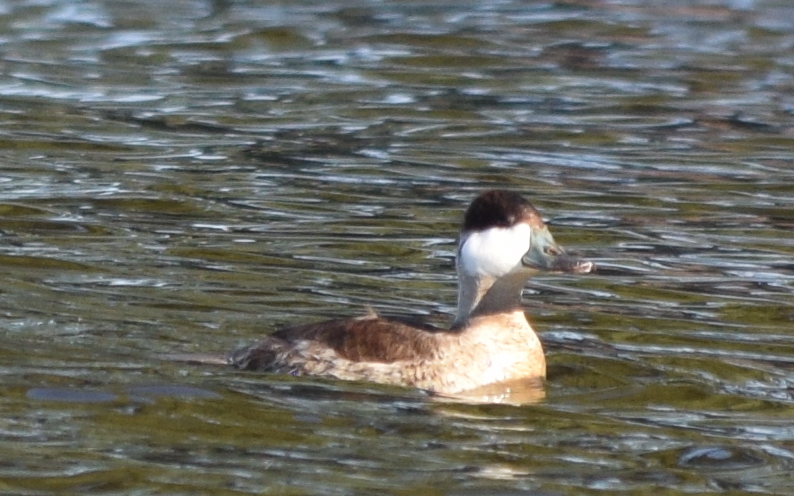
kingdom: Animalia
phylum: Chordata
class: Aves
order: Anseriformes
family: Anatidae
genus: Oxyura
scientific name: Oxyura jamaicensis
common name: Ruddy duck
